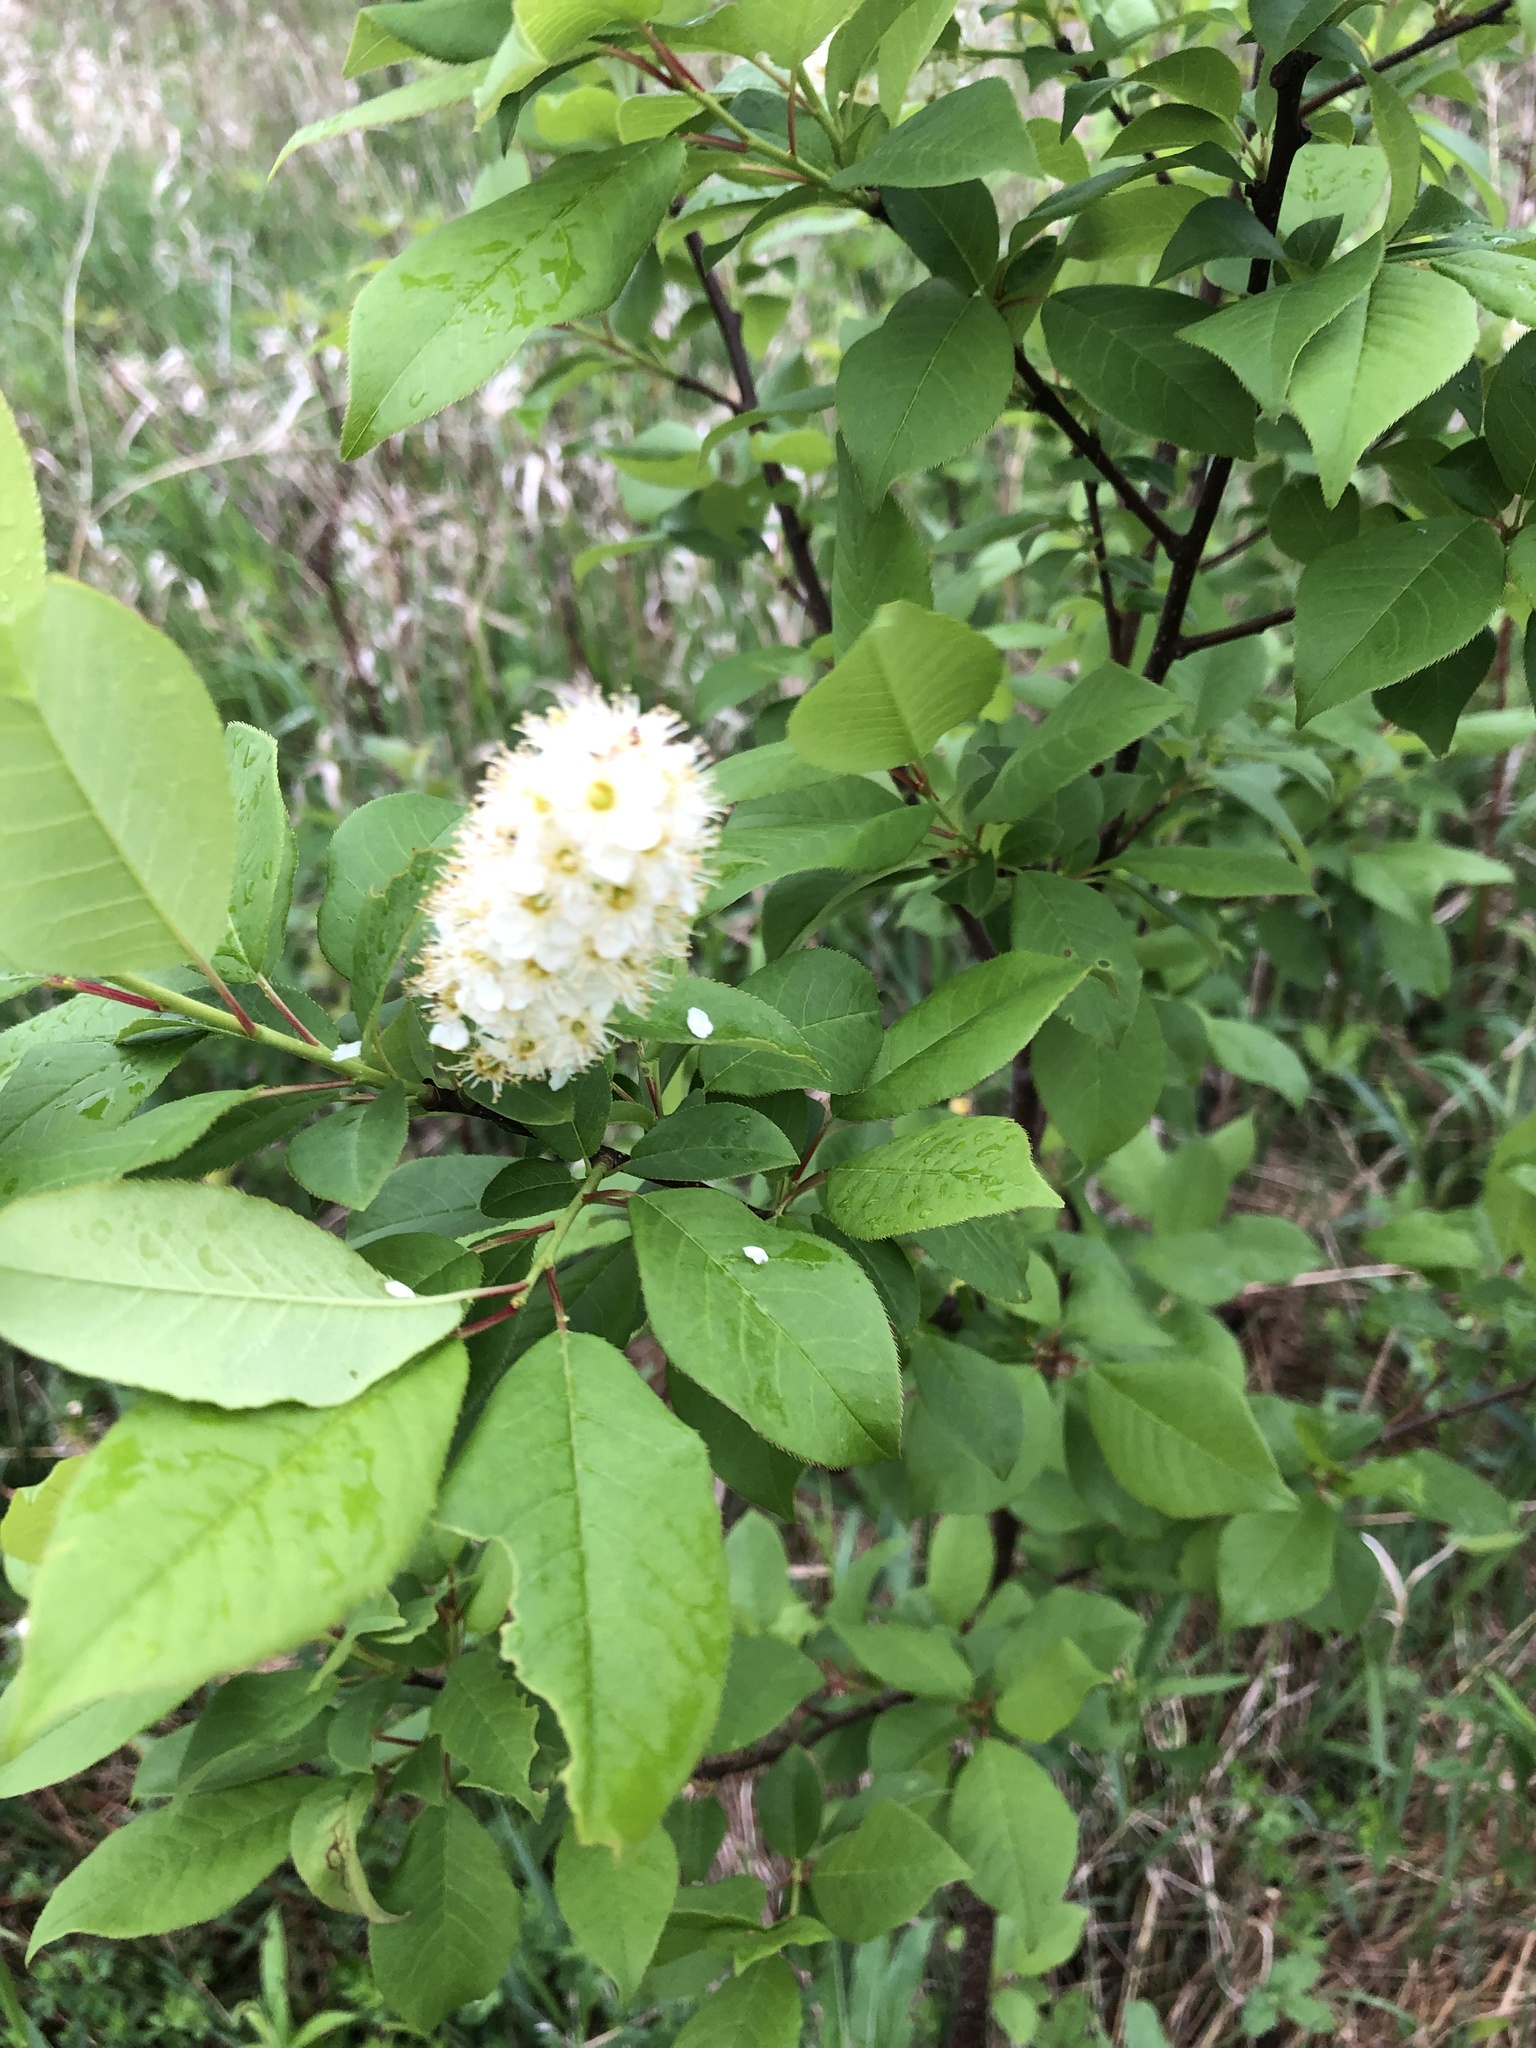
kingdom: Plantae
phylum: Tracheophyta
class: Magnoliopsida
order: Rosales
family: Rosaceae
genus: Prunus
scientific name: Prunus virginiana
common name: Chokecherry
